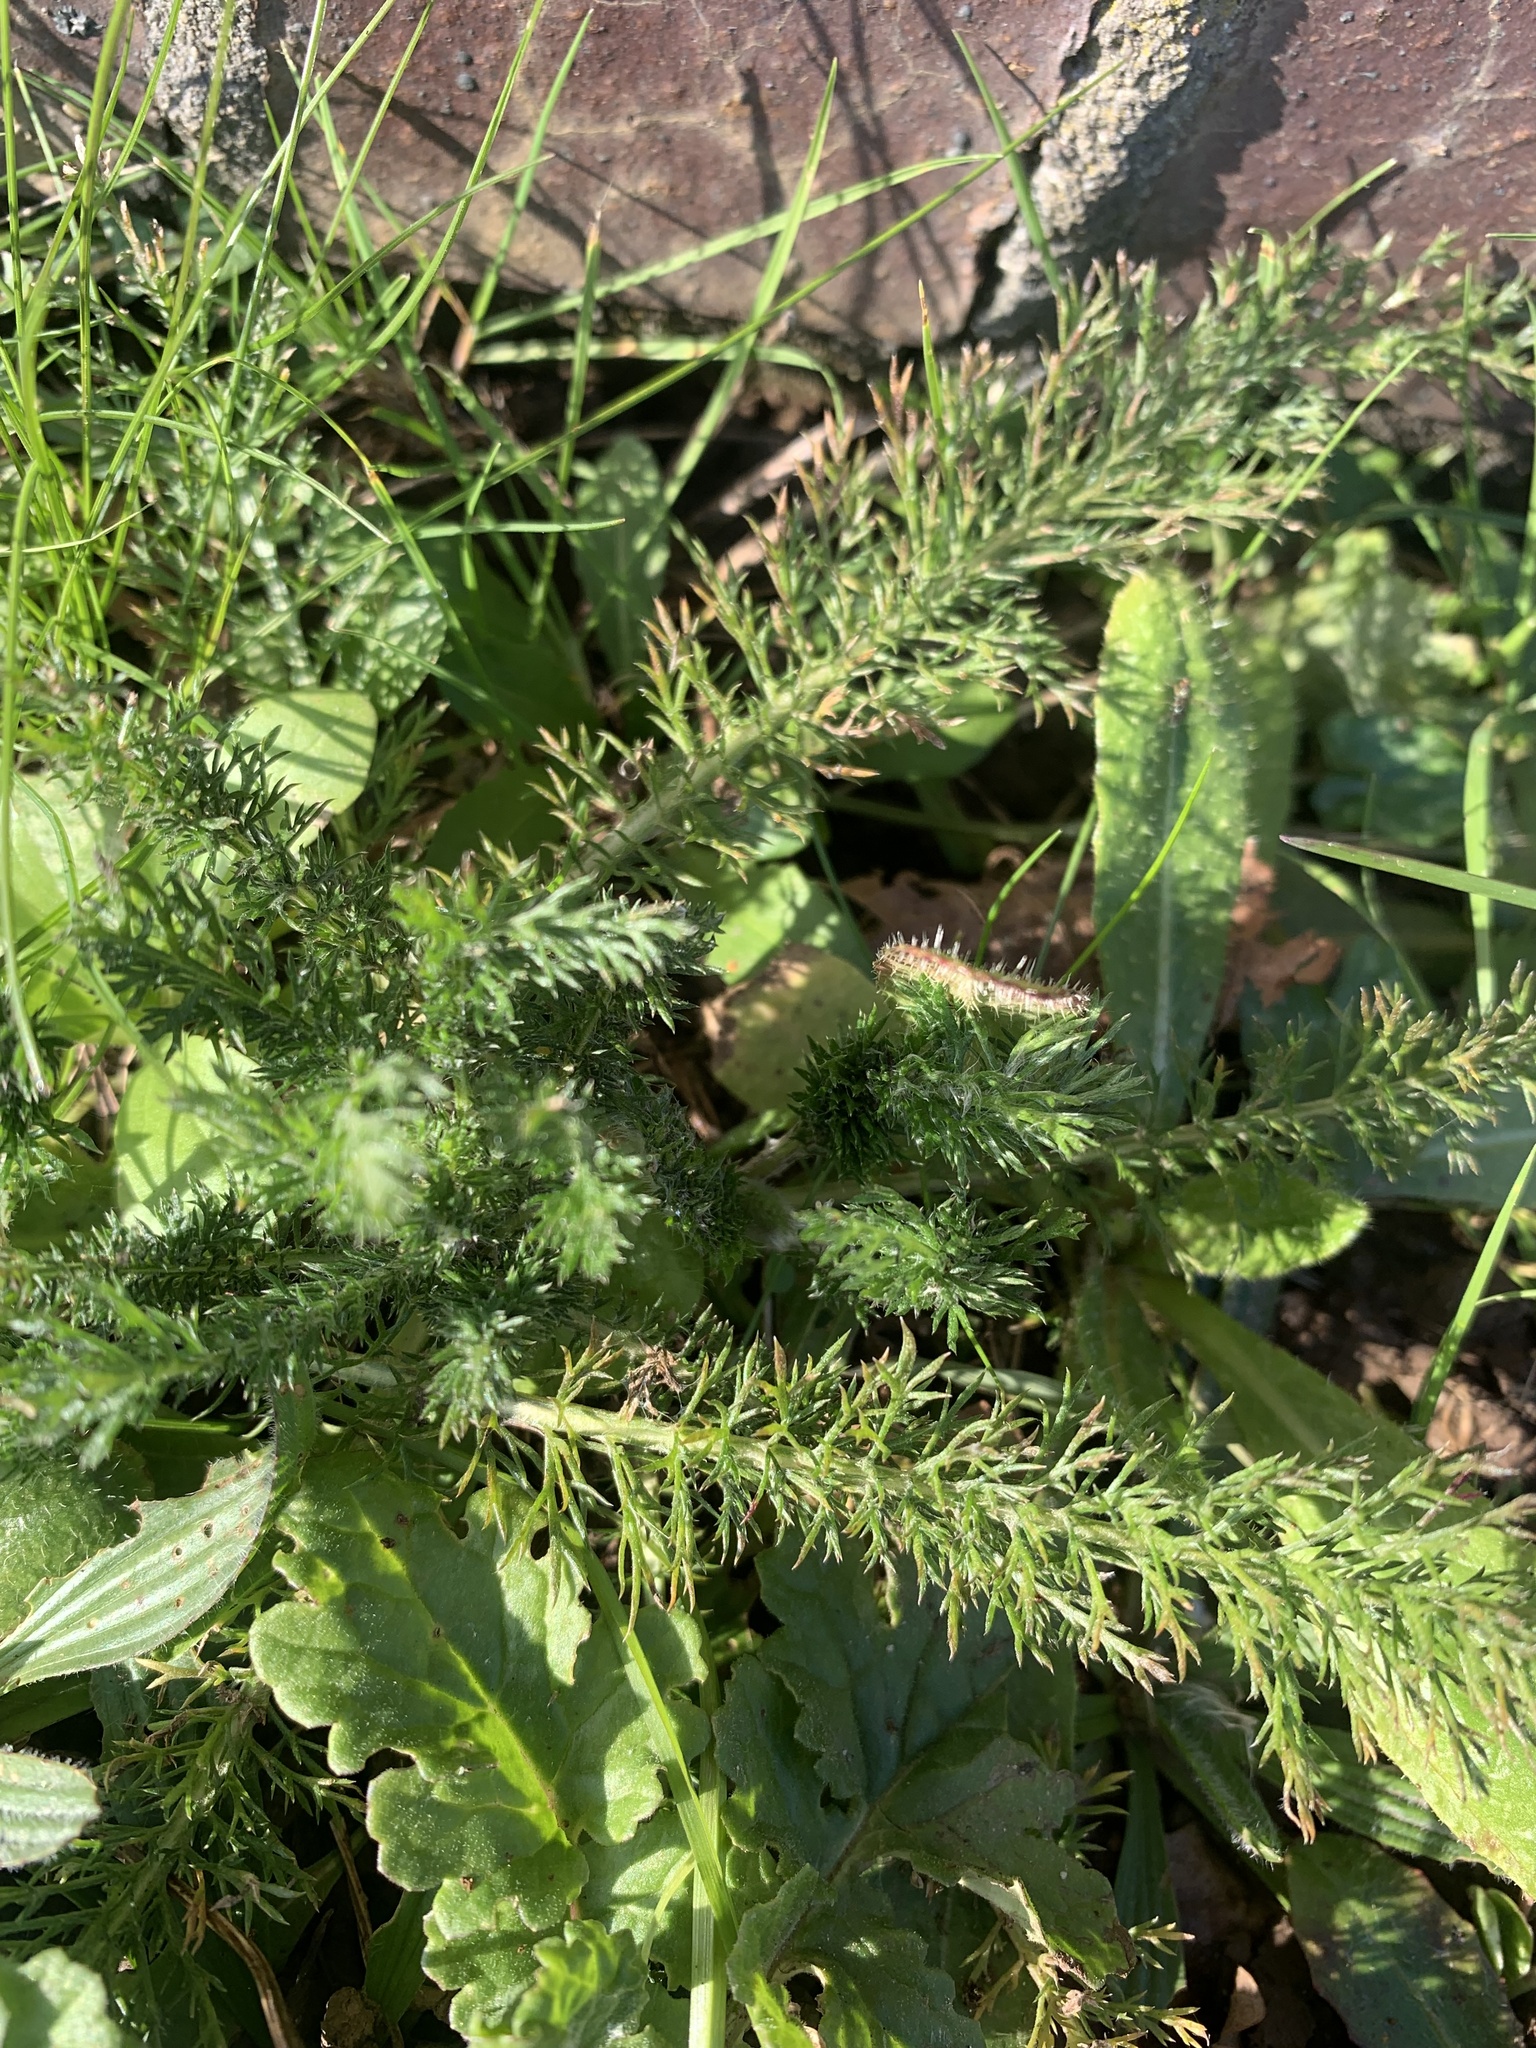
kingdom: Plantae
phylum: Tracheophyta
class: Magnoliopsida
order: Asterales
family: Asteraceae
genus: Achillea
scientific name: Achillea millefolium
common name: Yarrow
